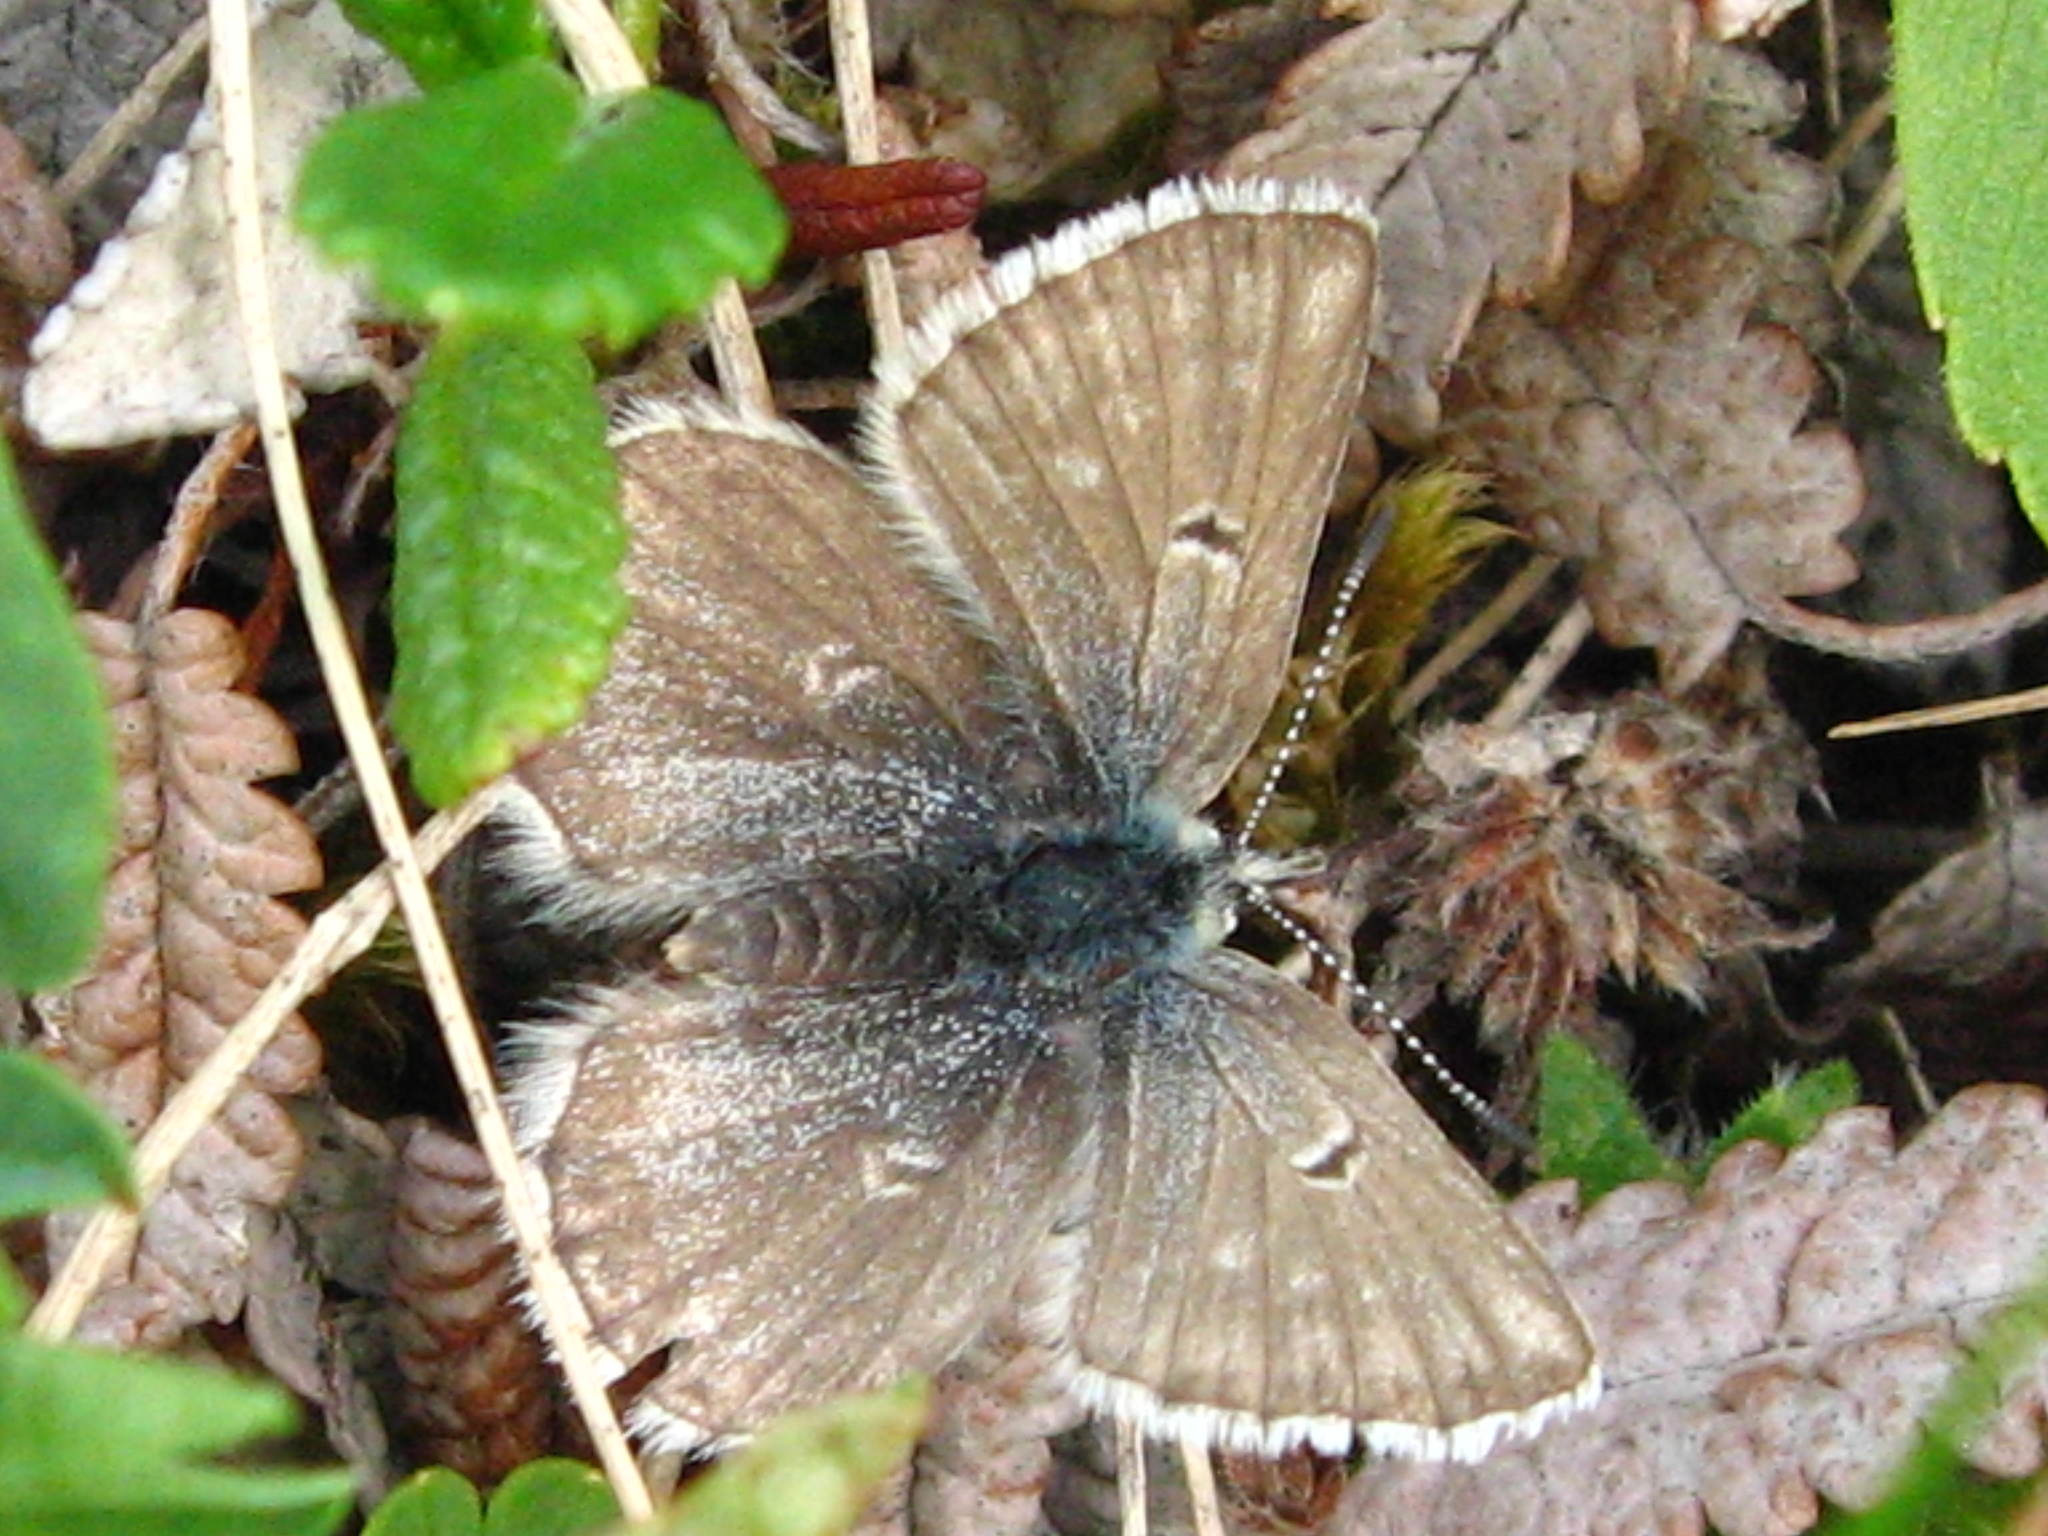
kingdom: Animalia
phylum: Arthropoda
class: Insecta
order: Lepidoptera
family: Lycaenidae
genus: Agriades
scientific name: Agriades glandon
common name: Glandon blue
